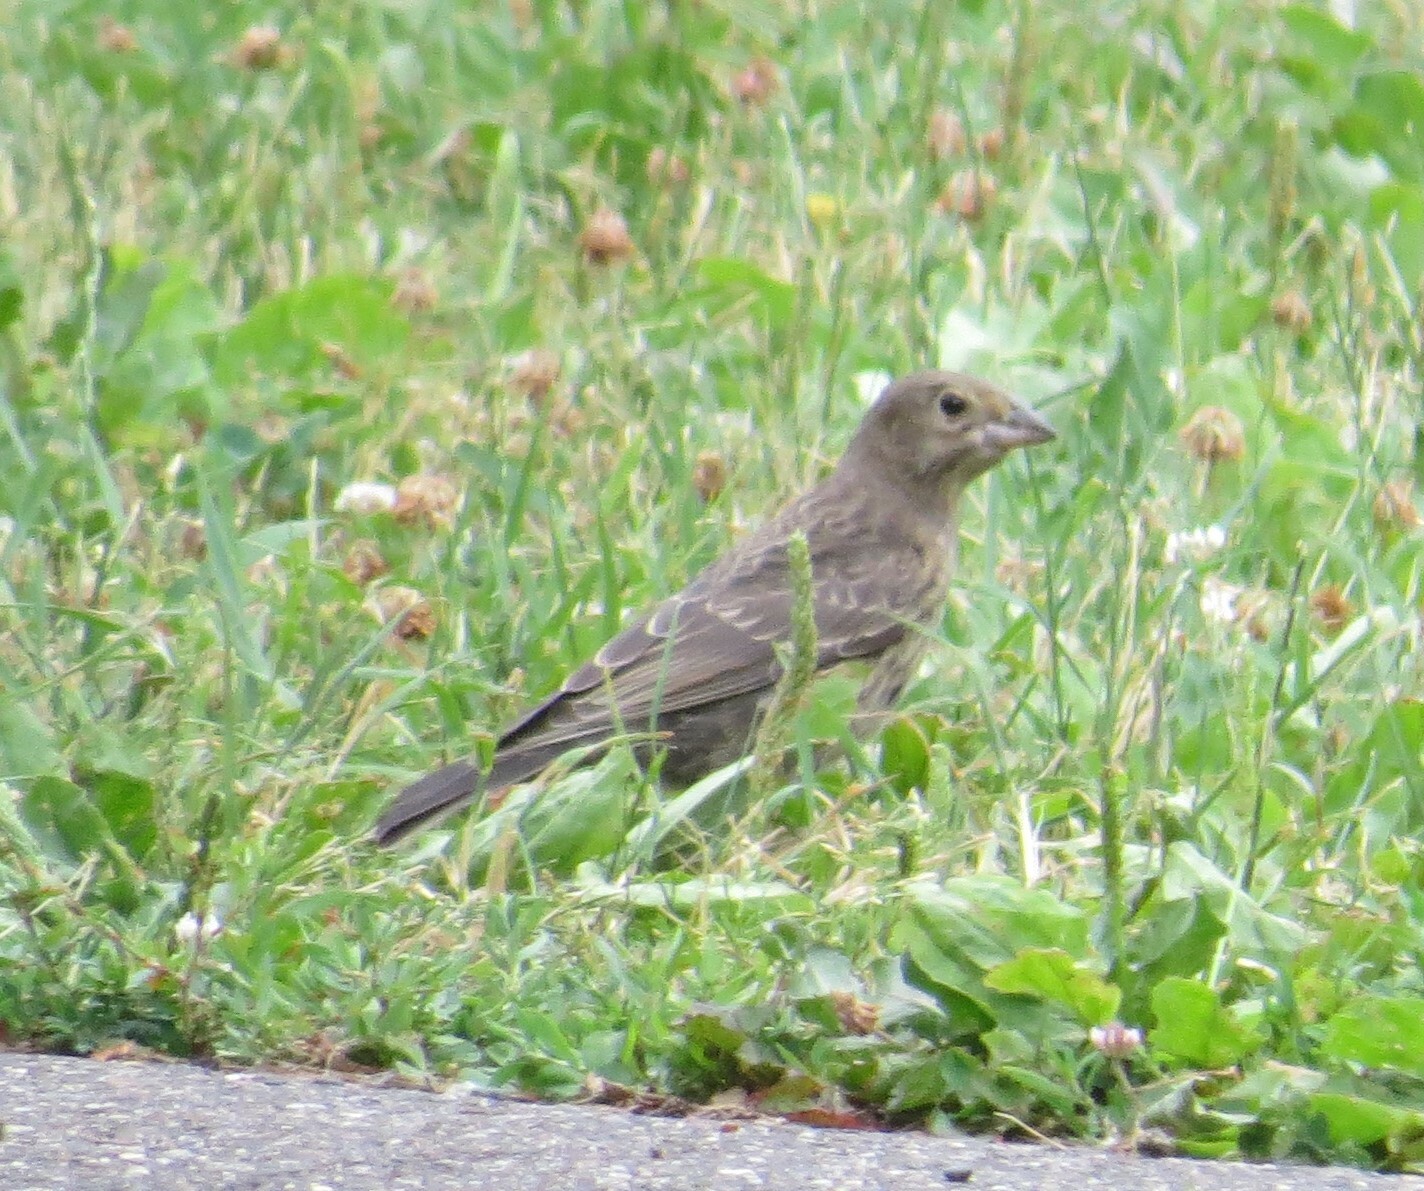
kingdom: Animalia
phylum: Chordata
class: Aves
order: Passeriformes
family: Icteridae
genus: Molothrus
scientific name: Molothrus ater
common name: Brown-headed cowbird
